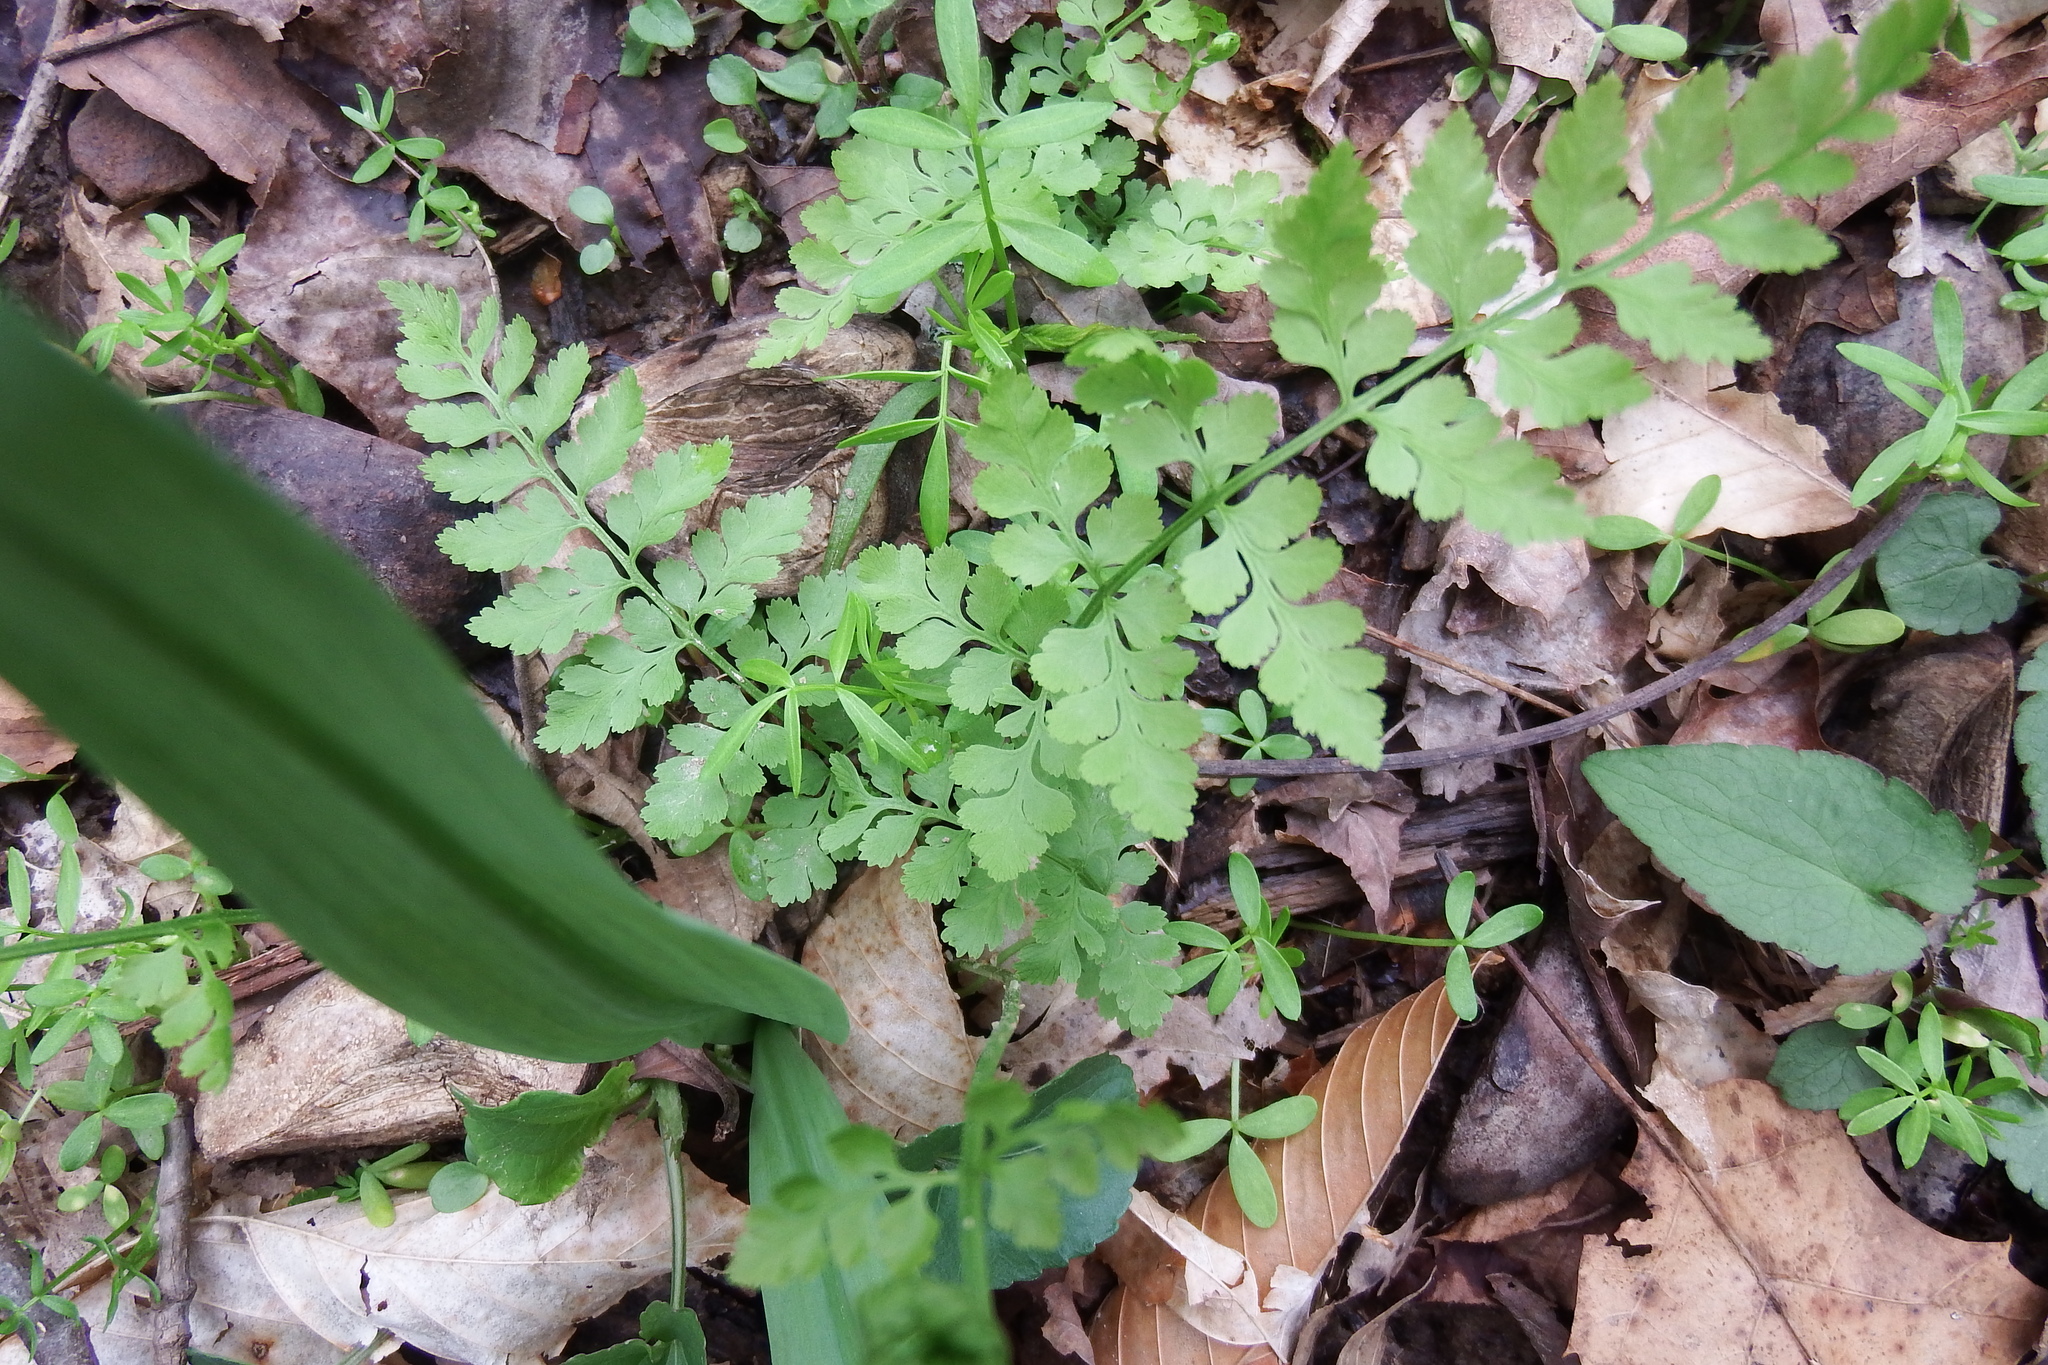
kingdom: Plantae
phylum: Tracheophyta
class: Polypodiopsida
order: Polypodiales
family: Cystopteridaceae
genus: Cystopteris
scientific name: Cystopteris protrusa
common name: Lowland brittle fern
